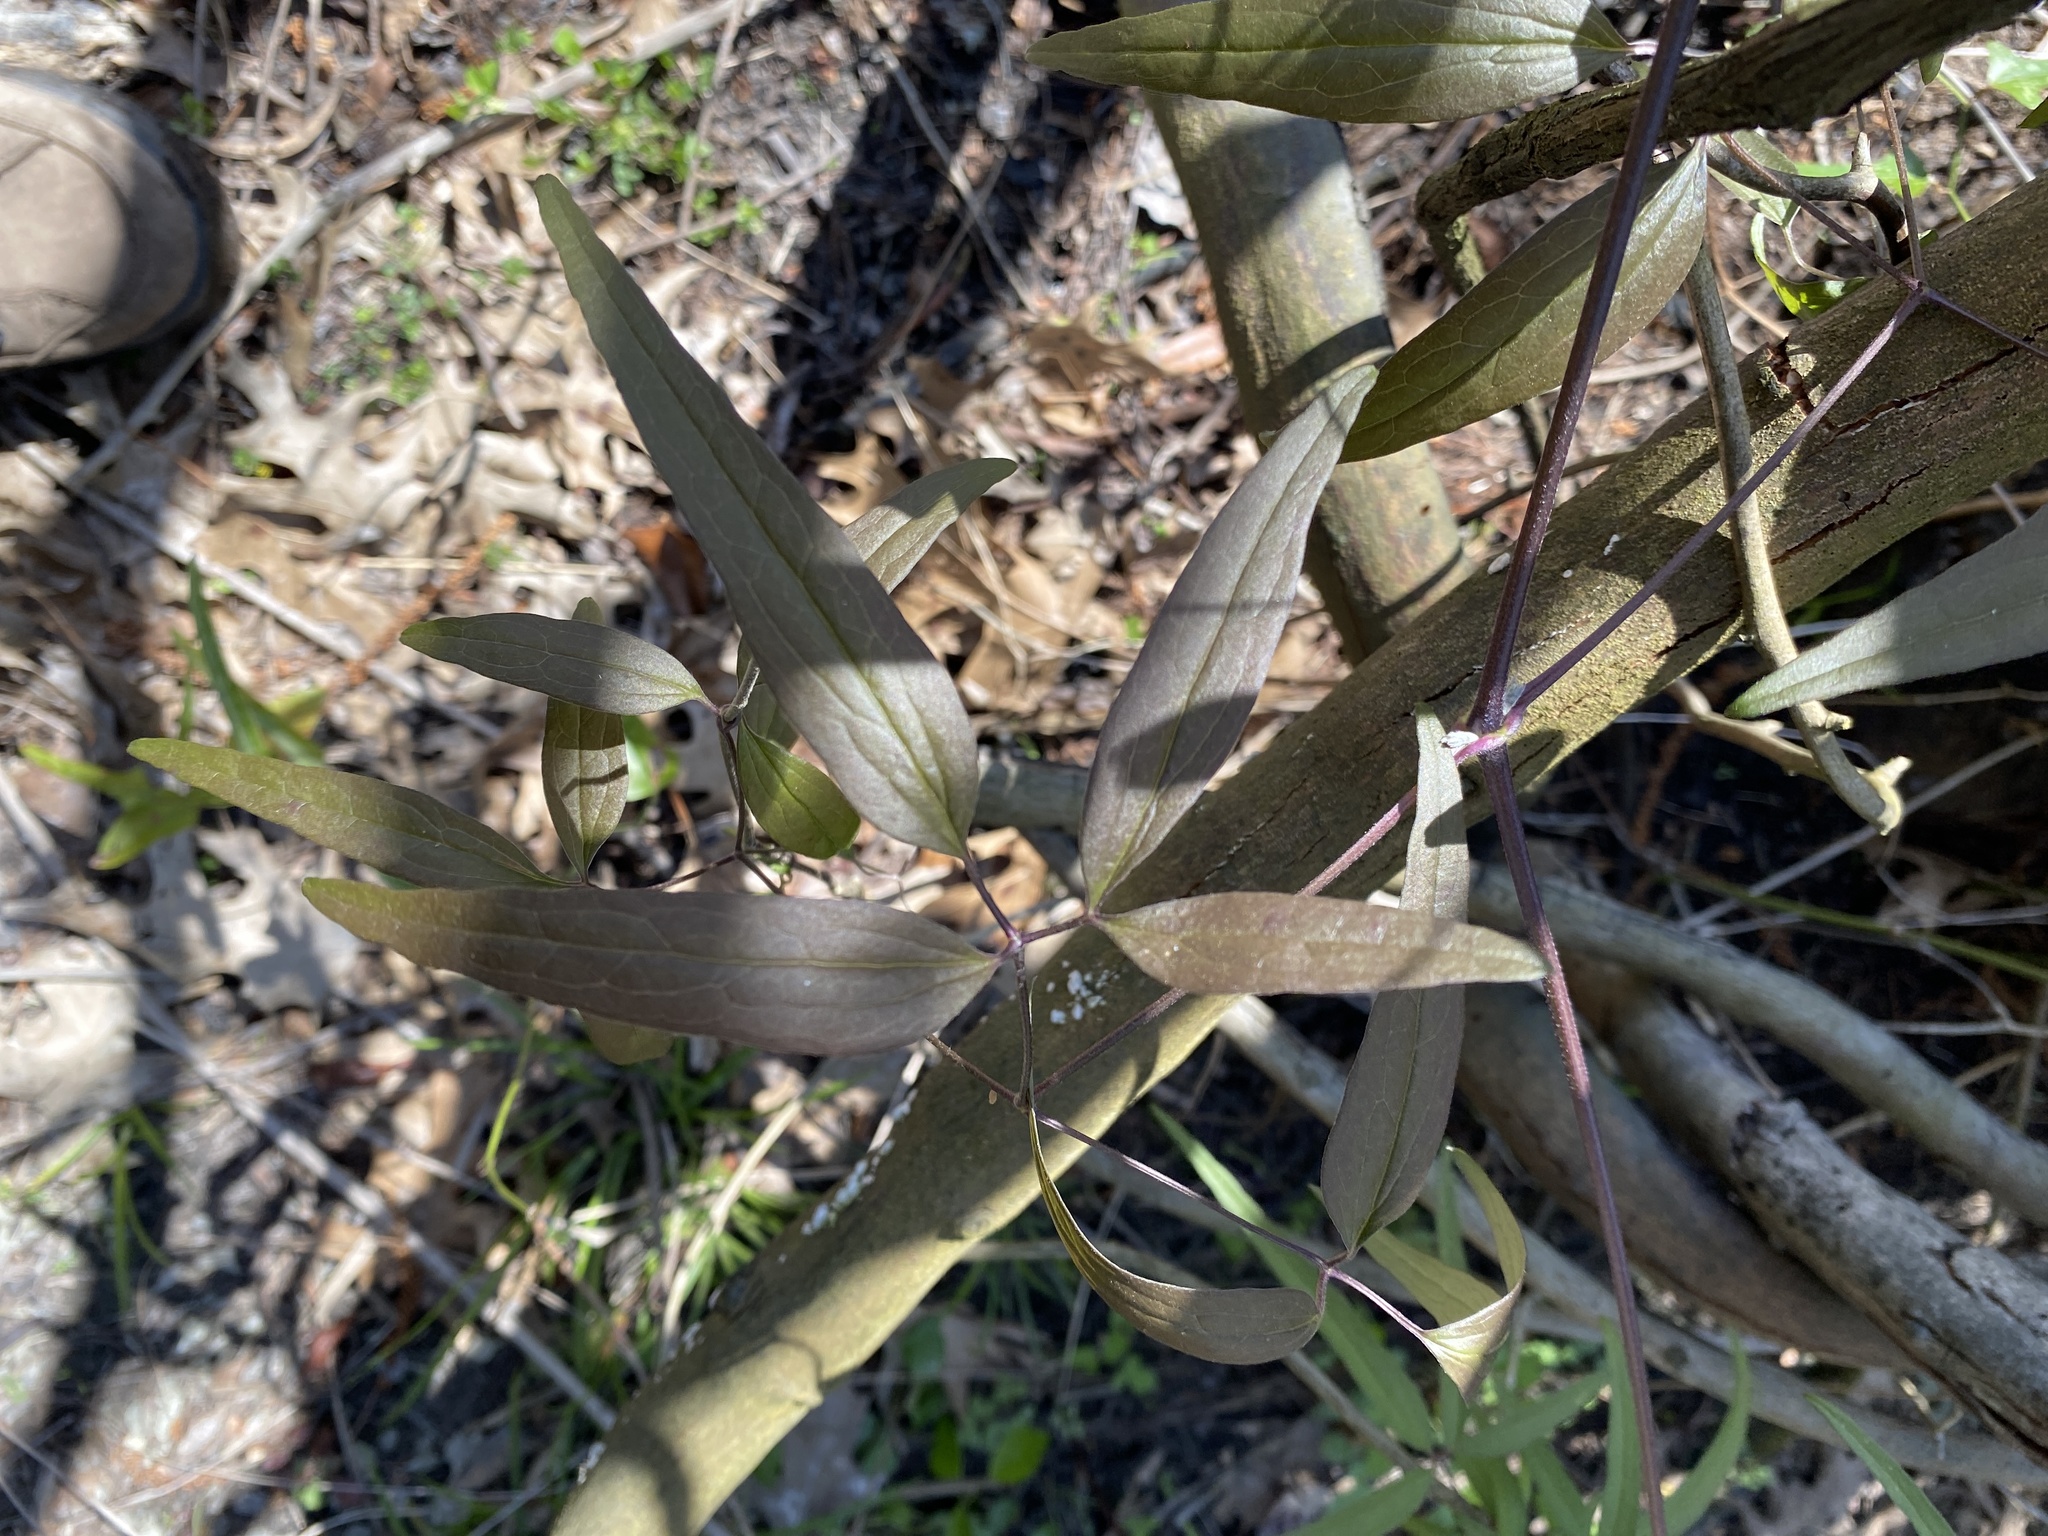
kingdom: Plantae
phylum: Tracheophyta
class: Magnoliopsida
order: Ranunculales
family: Ranunculaceae
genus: Clematis
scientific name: Clematis crispa
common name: Curly clematis
